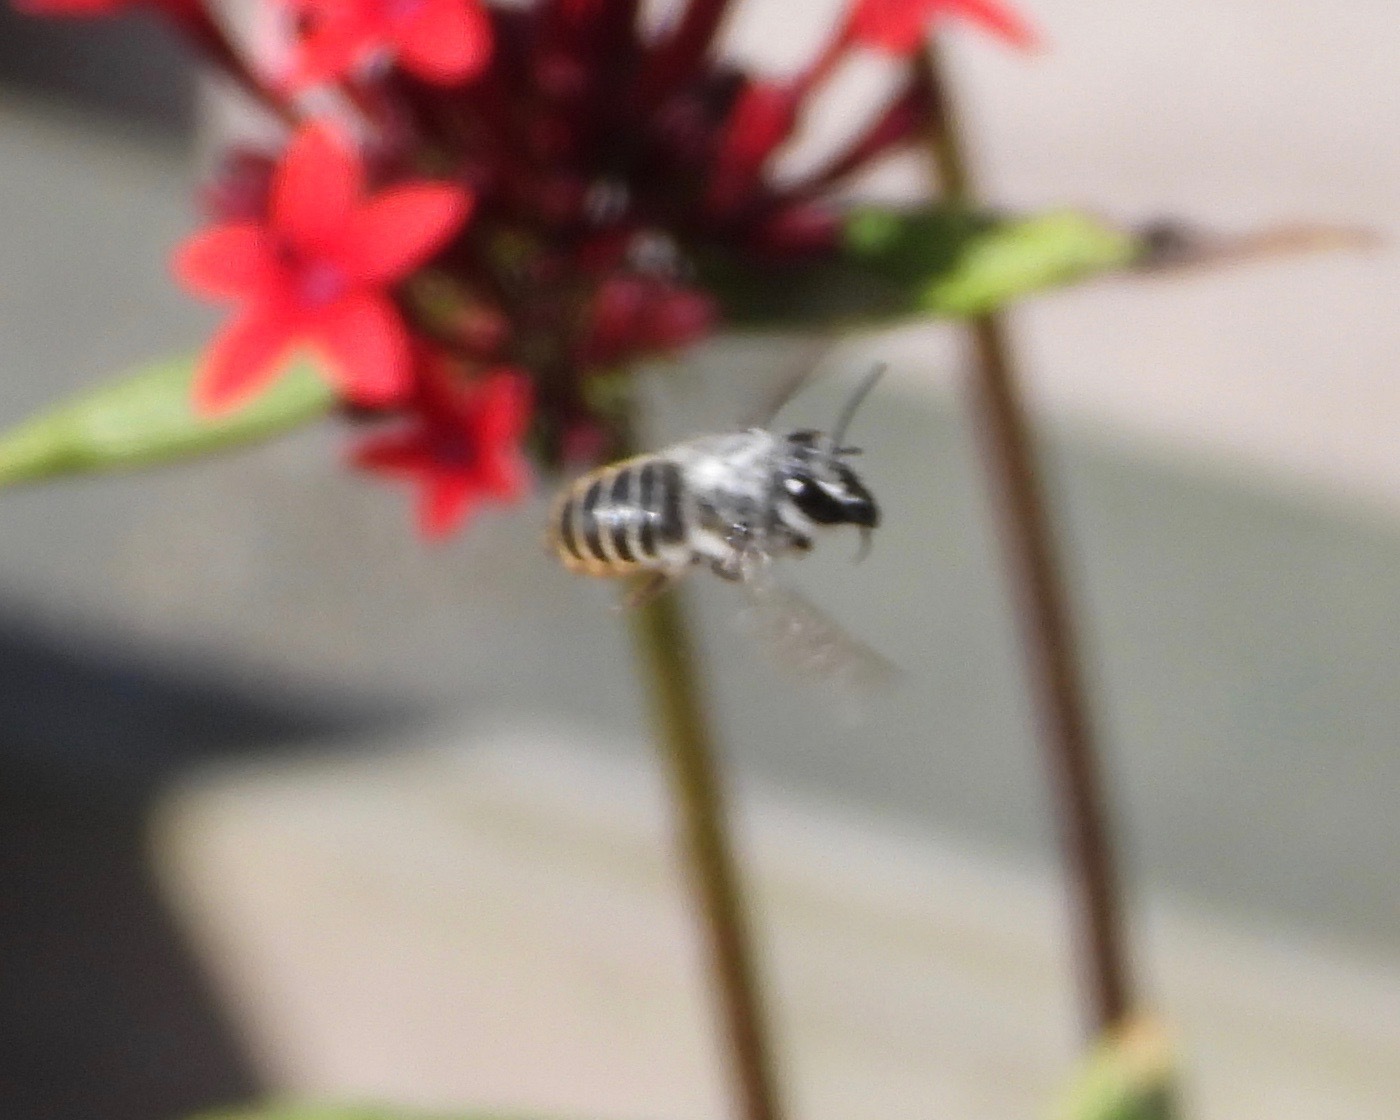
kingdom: Animalia
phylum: Arthropoda
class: Insecta
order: Hymenoptera
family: Megachilidae
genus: Megachile
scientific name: Megachile zapoteca
